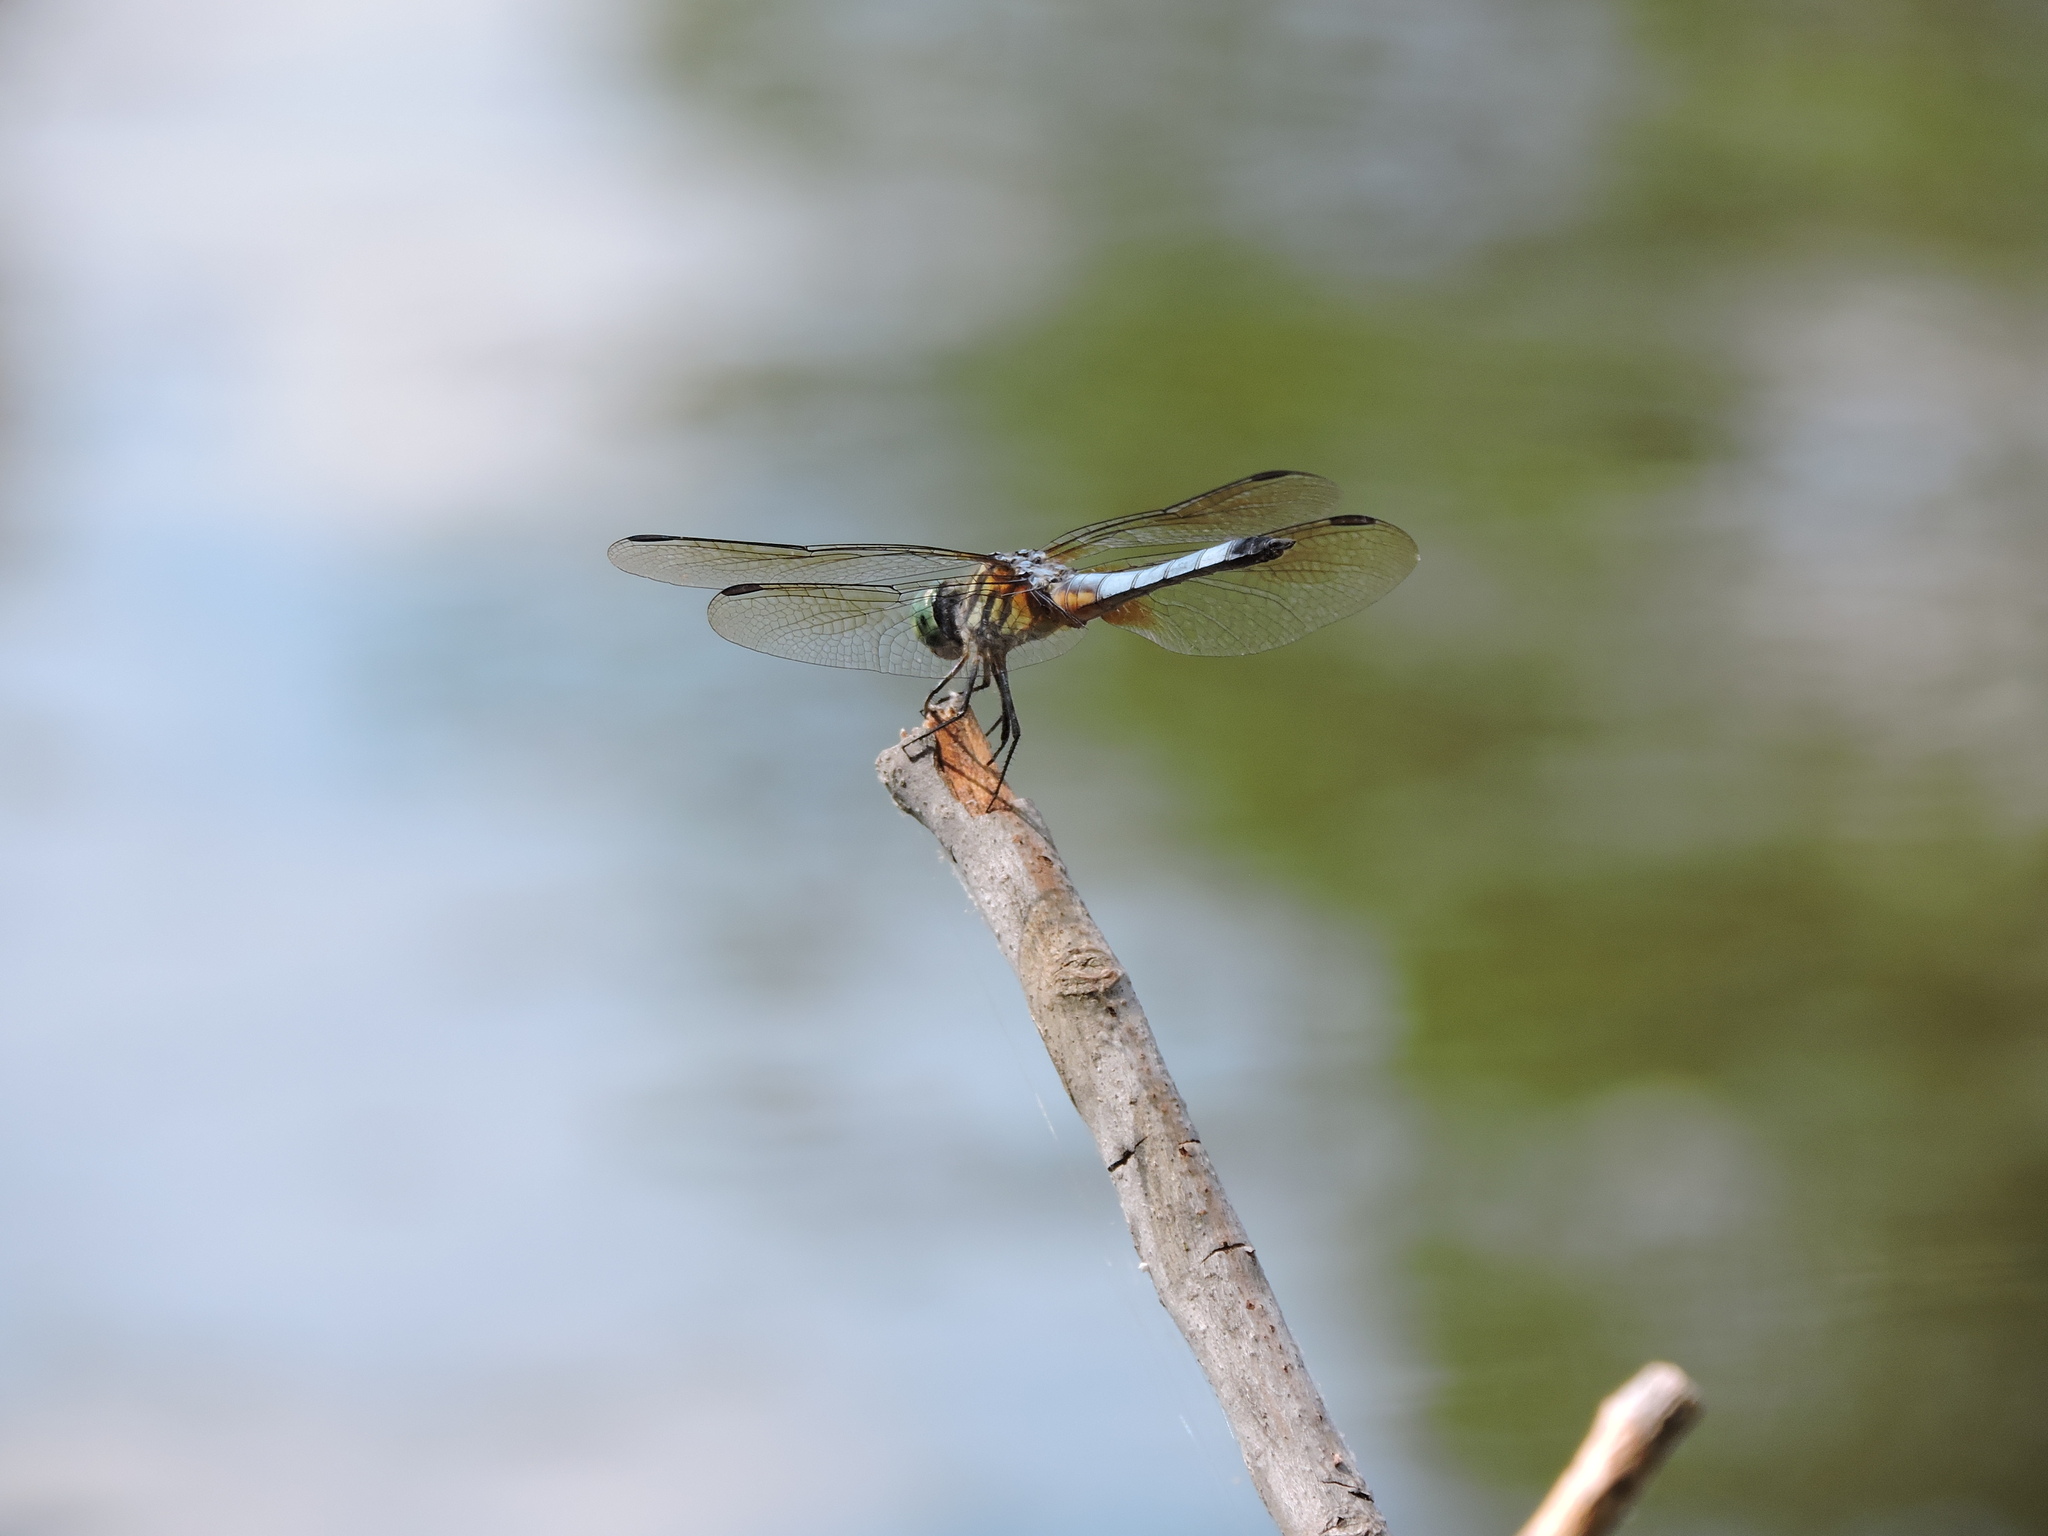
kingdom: Animalia
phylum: Arthropoda
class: Insecta
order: Odonata
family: Libellulidae
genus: Pachydiplax
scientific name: Pachydiplax longipennis
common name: Blue dasher
